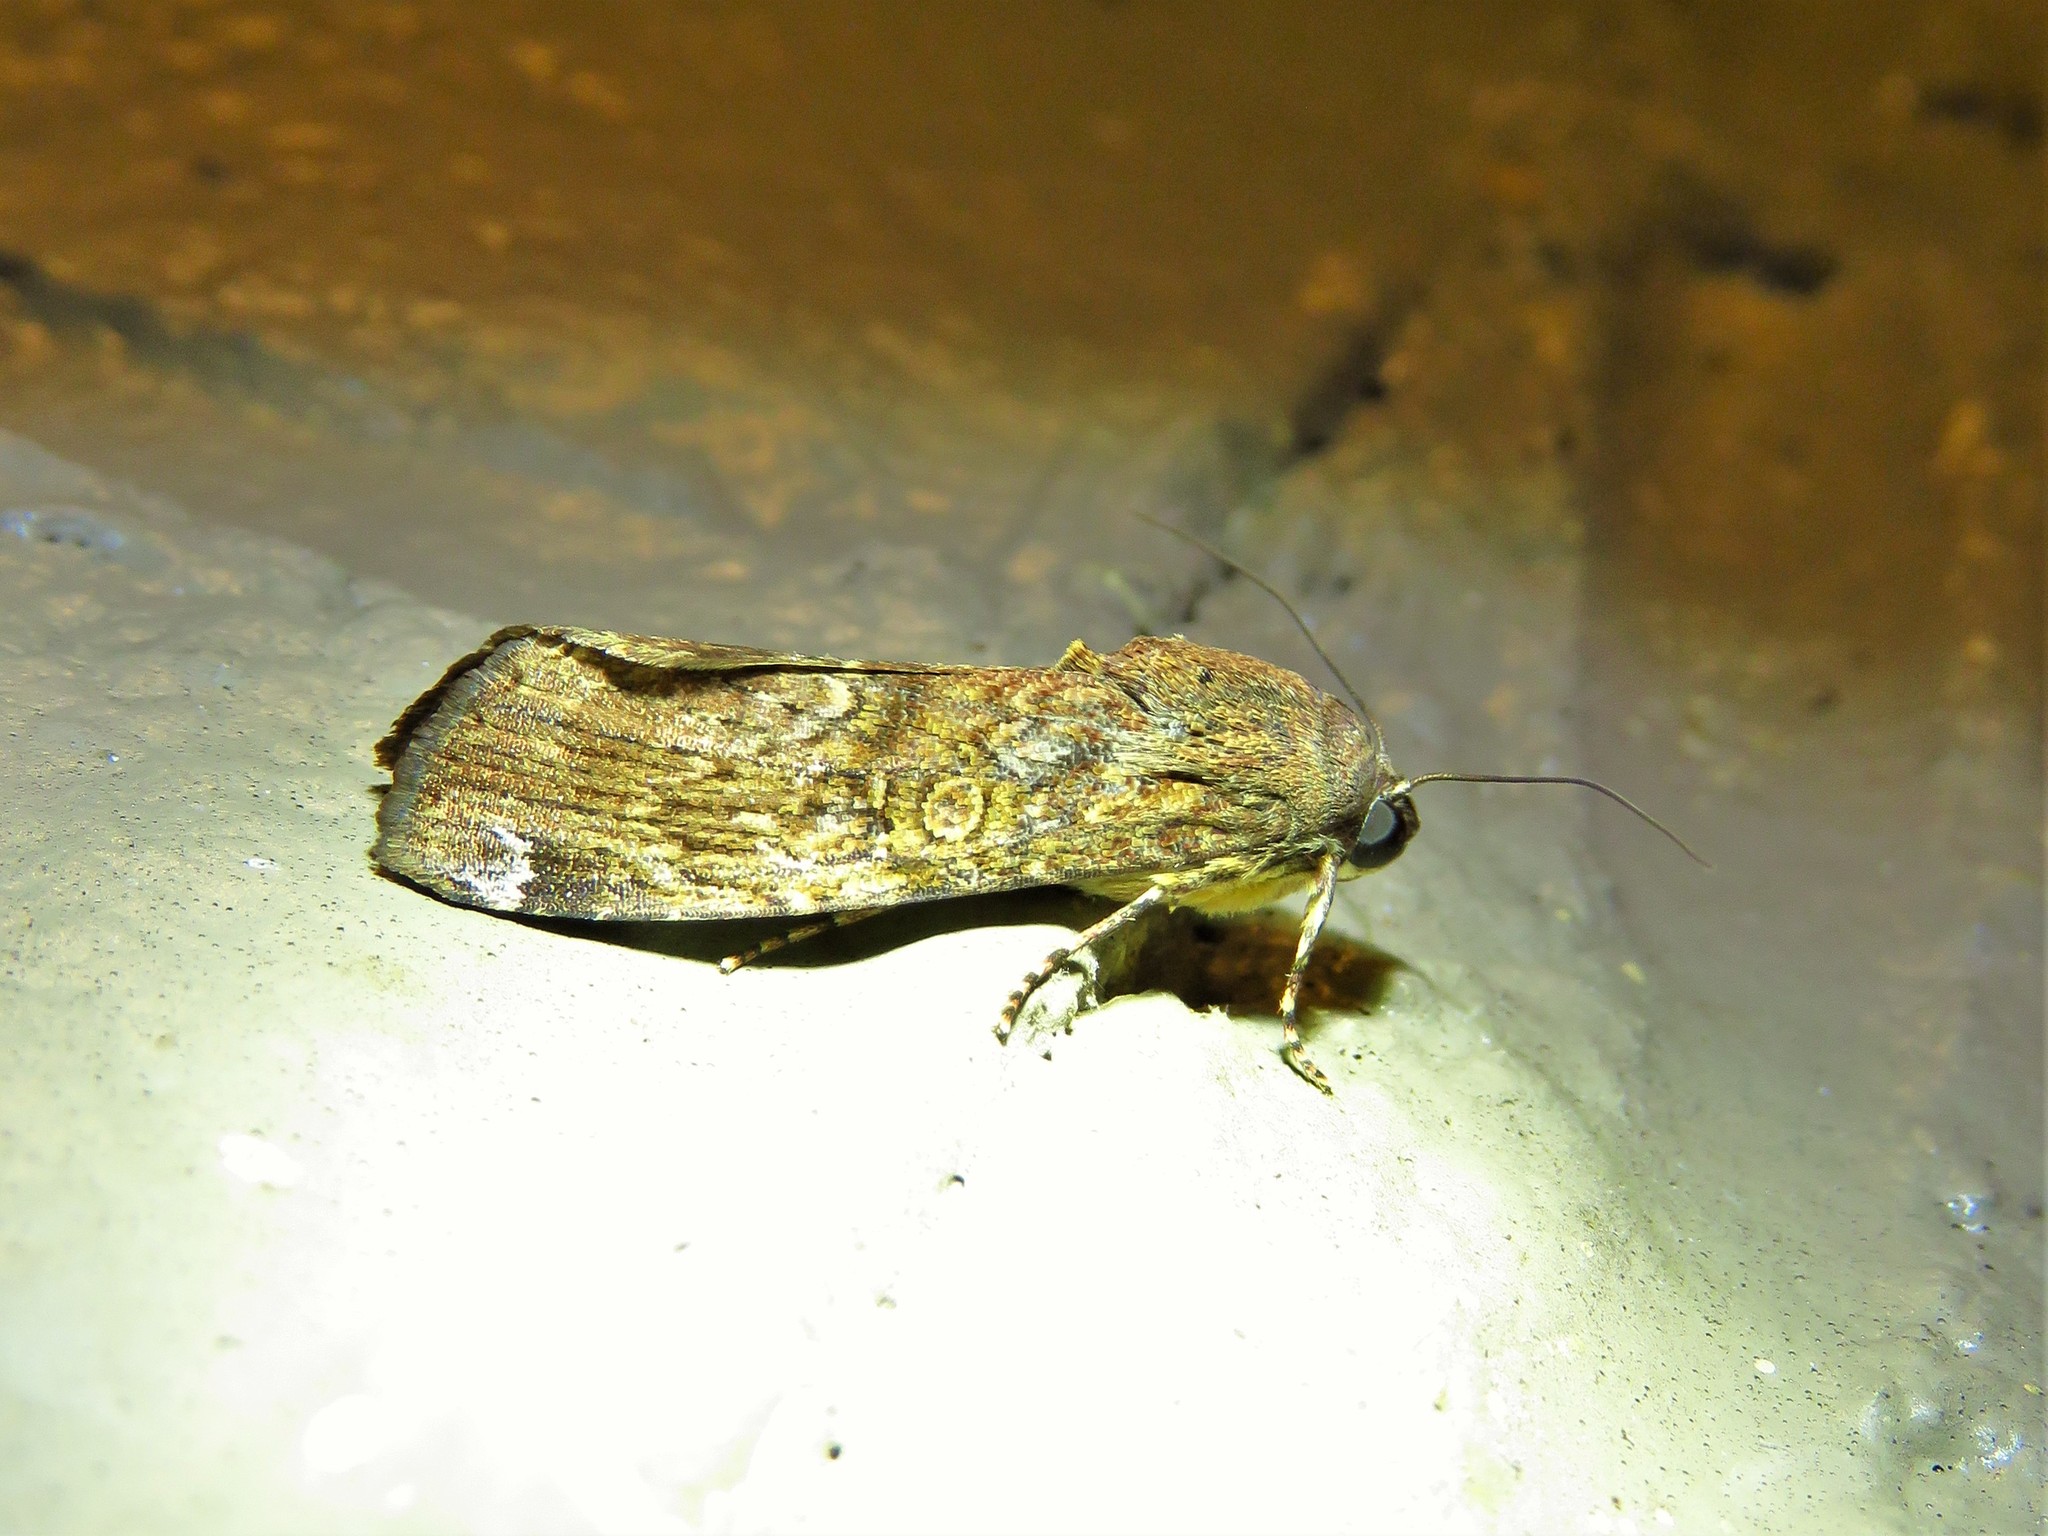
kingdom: Animalia
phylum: Arthropoda
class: Insecta
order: Lepidoptera
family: Noctuidae
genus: Magusa
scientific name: Magusa divaricata
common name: Orb narrow-winged moth
